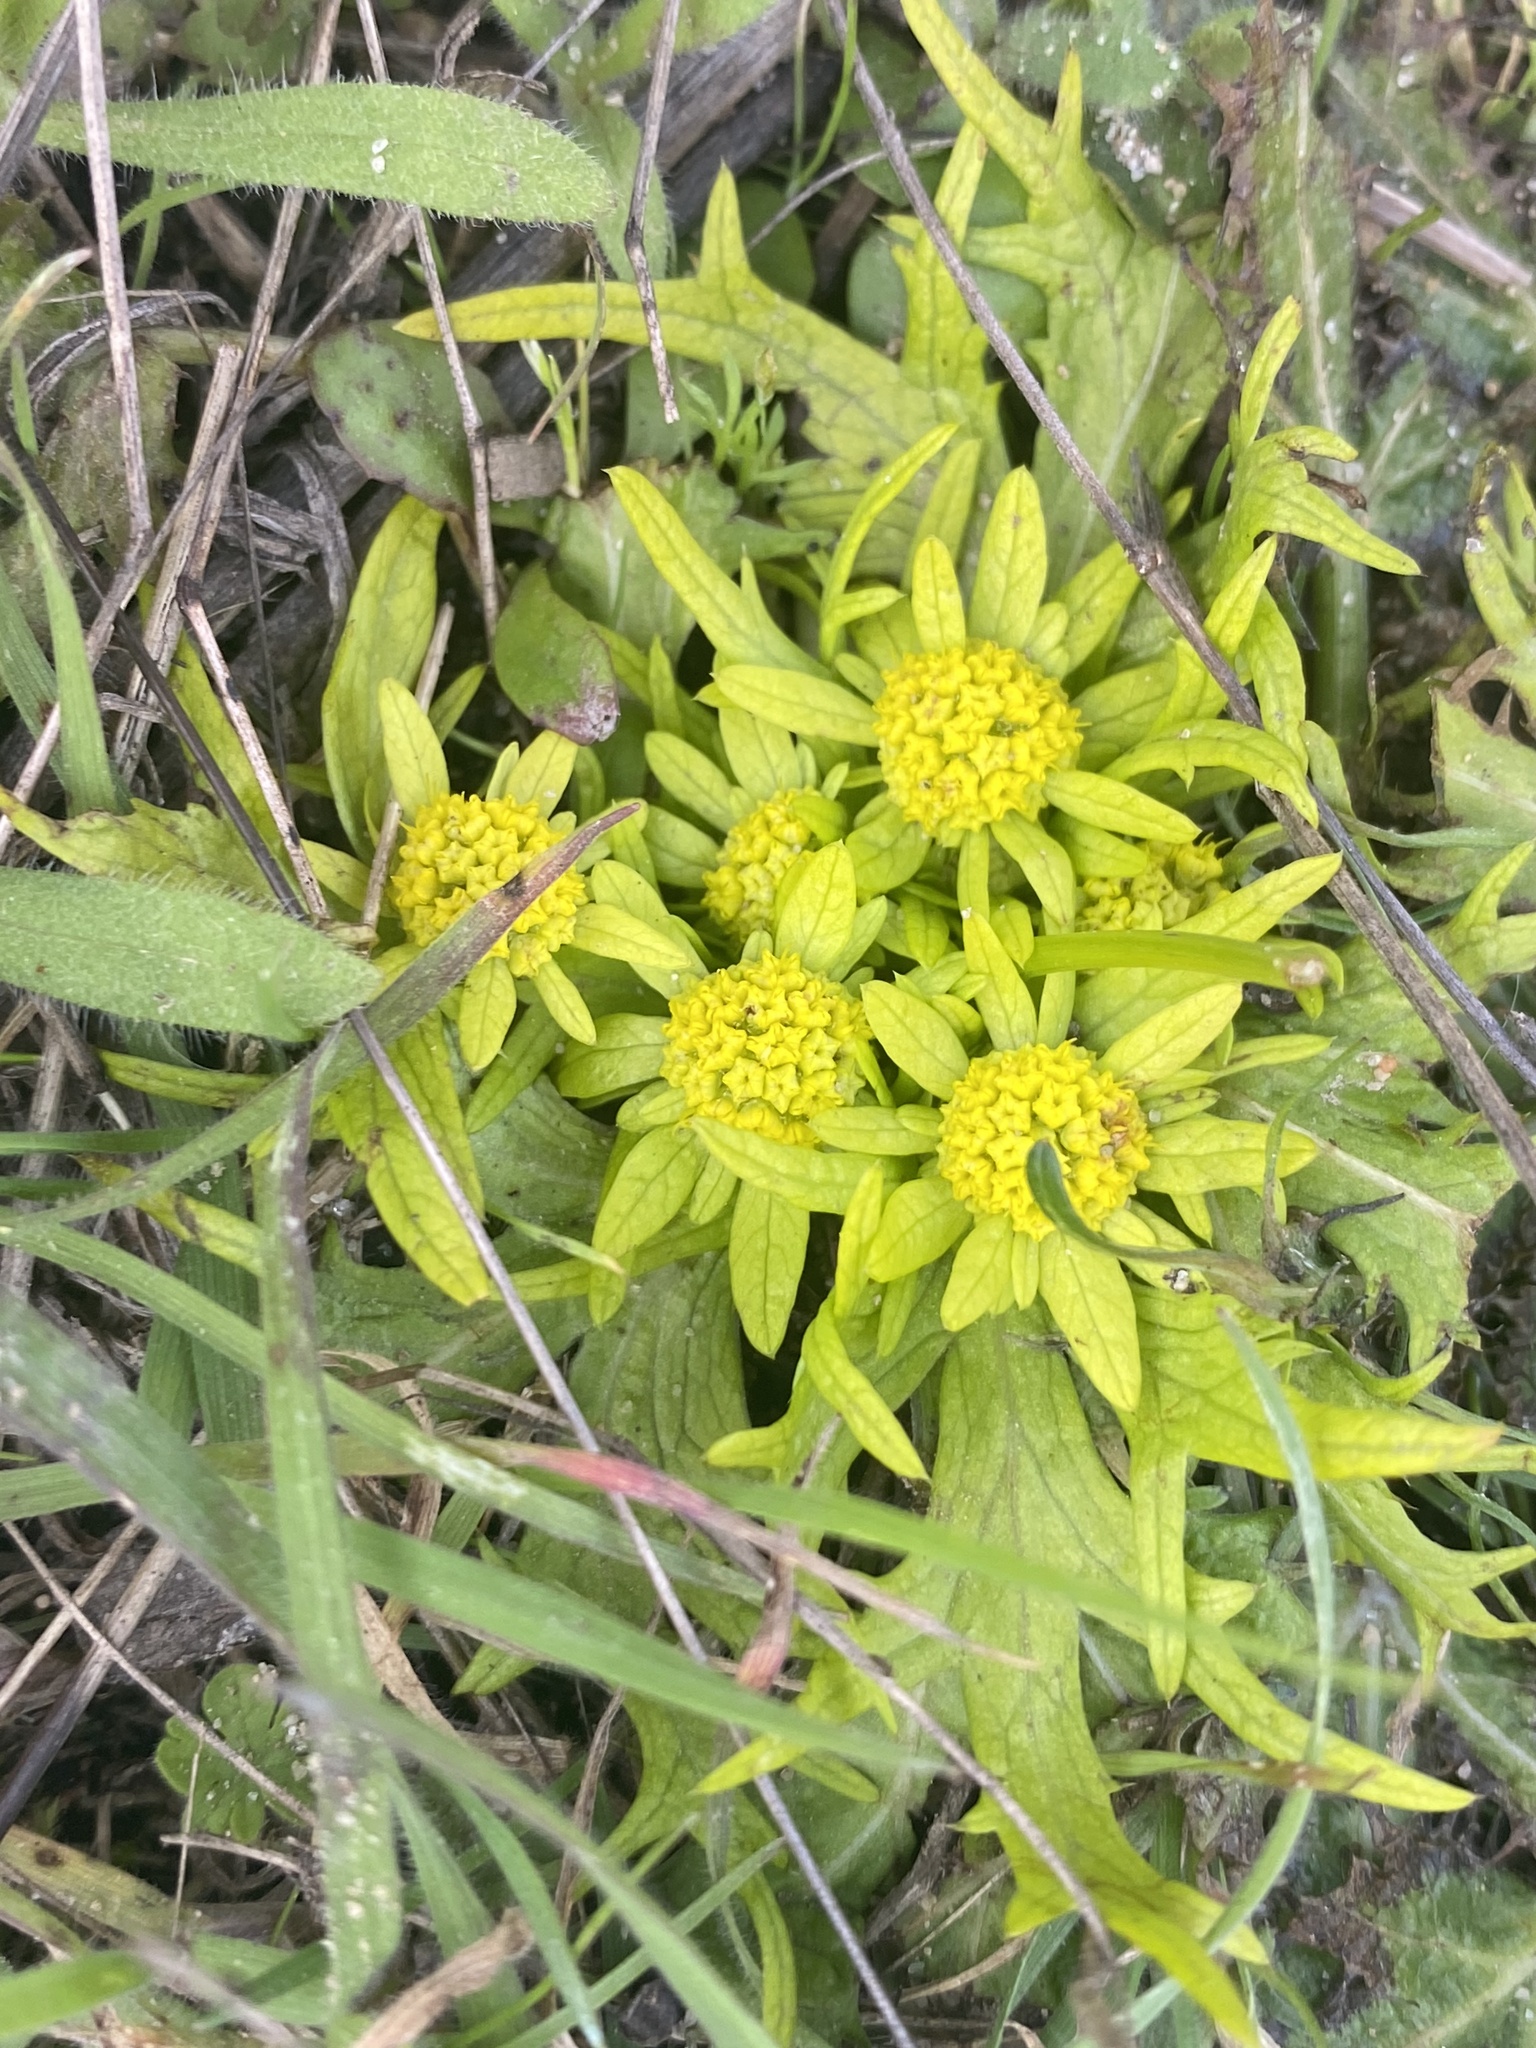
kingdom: Plantae
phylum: Tracheophyta
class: Magnoliopsida
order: Apiales
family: Apiaceae
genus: Sanicula
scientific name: Sanicula arctopoides
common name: Footsteps-of-spring
